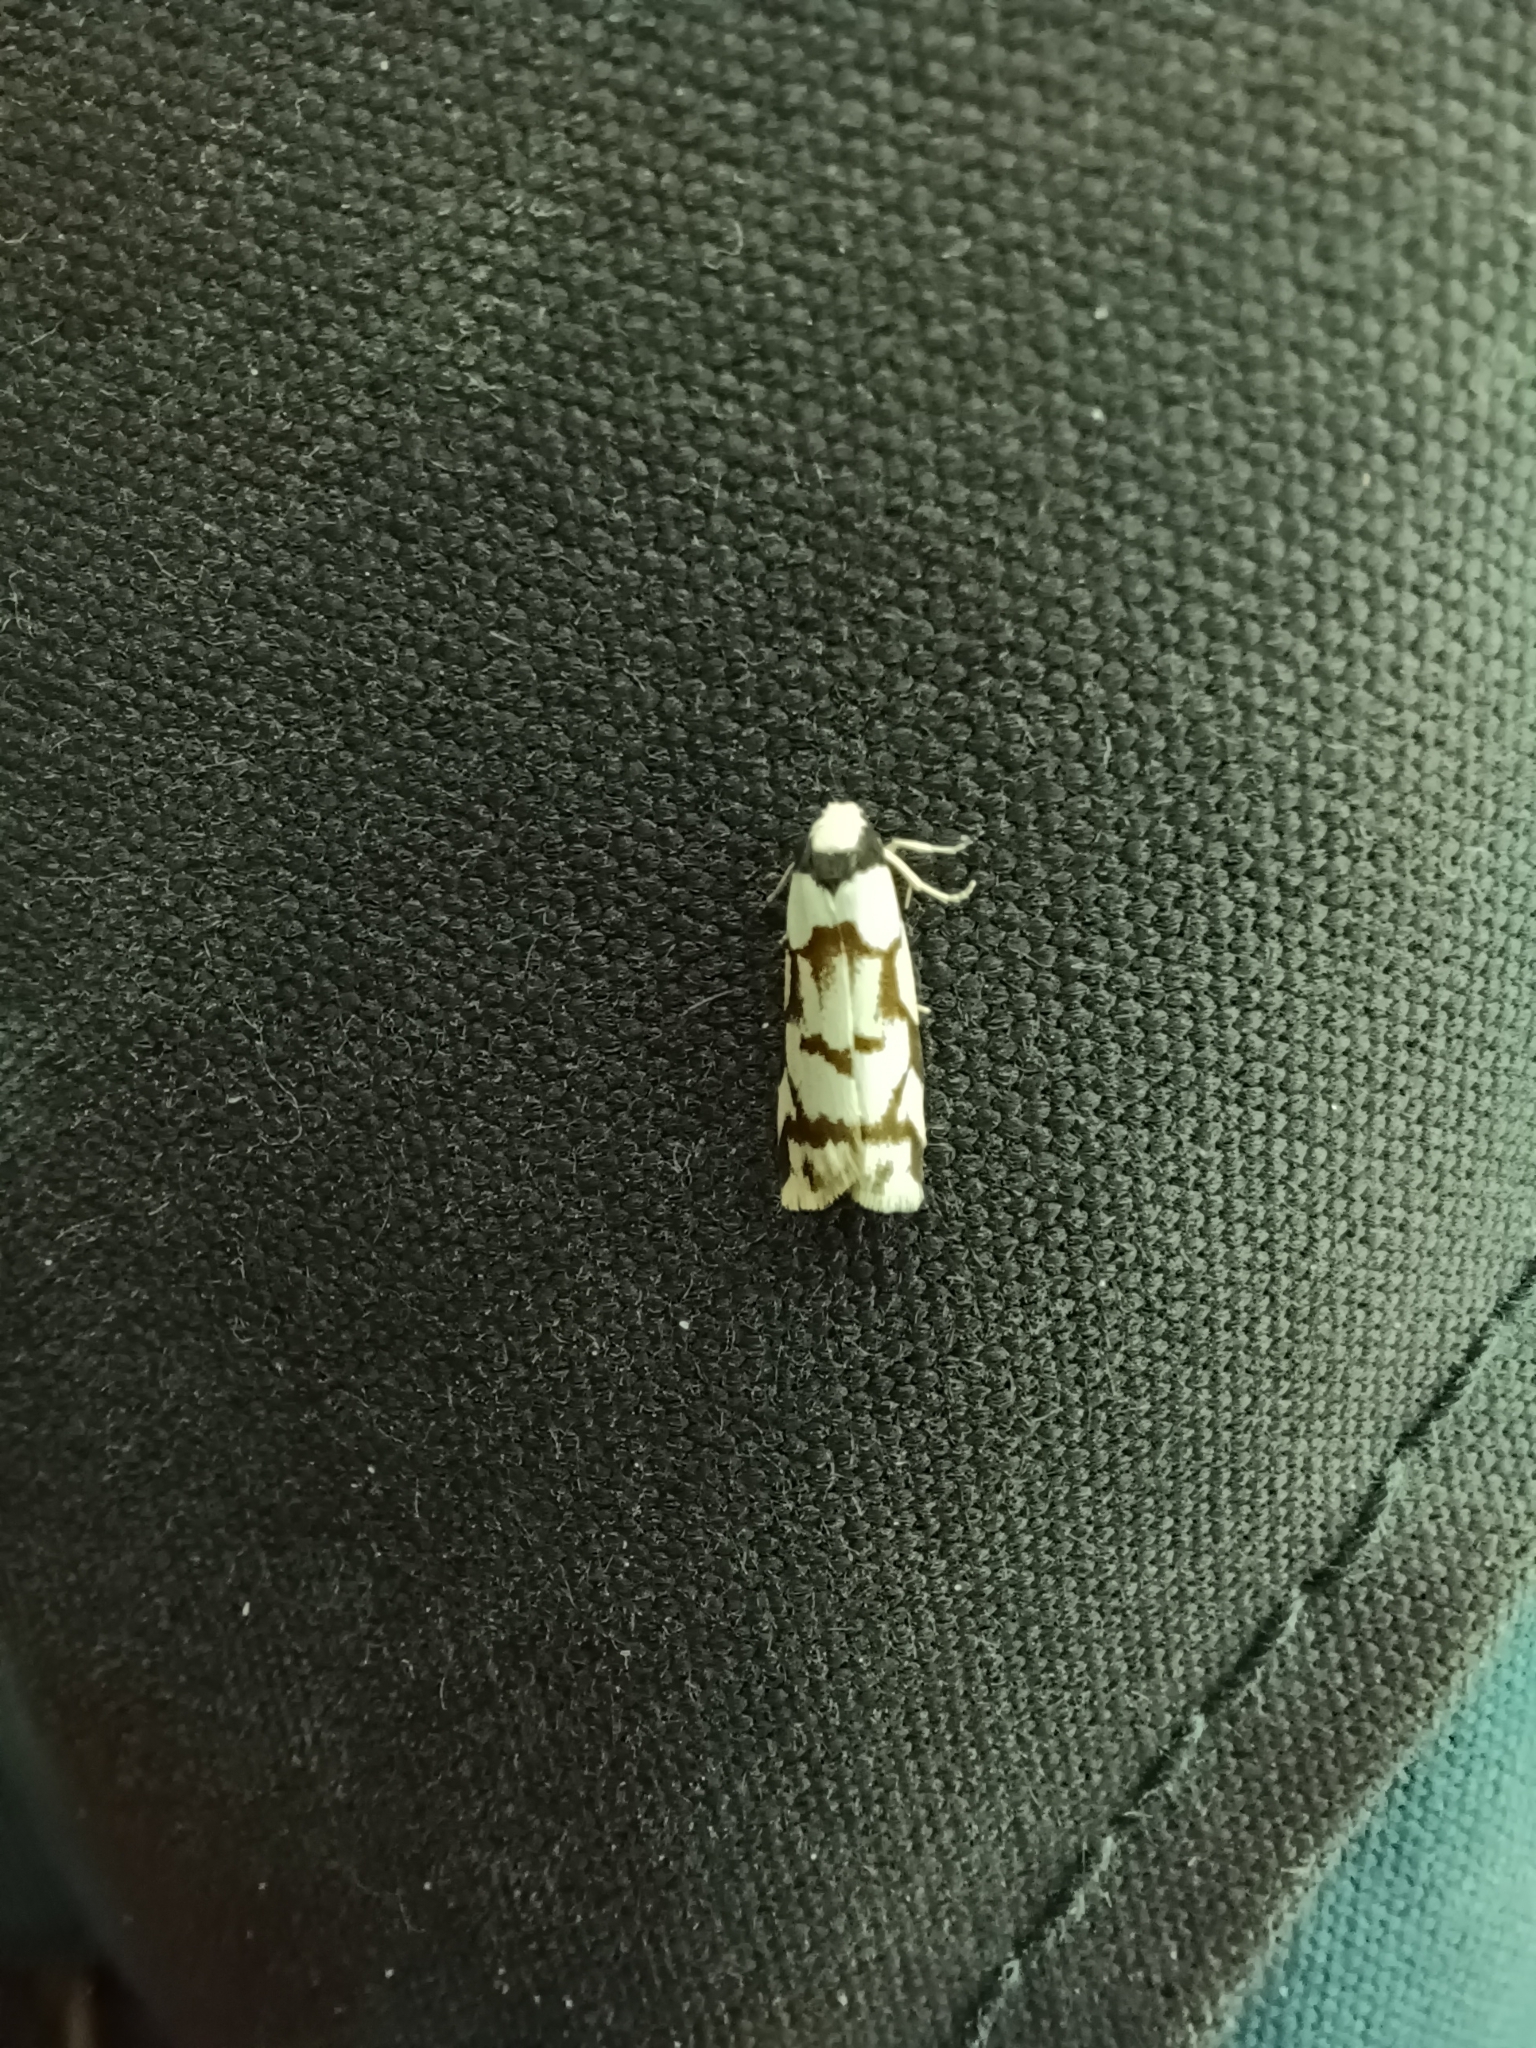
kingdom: Animalia
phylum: Arthropoda
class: Insecta
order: Lepidoptera
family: Erebidae
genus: Scaptesyle
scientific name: Scaptesyle dichotoma
